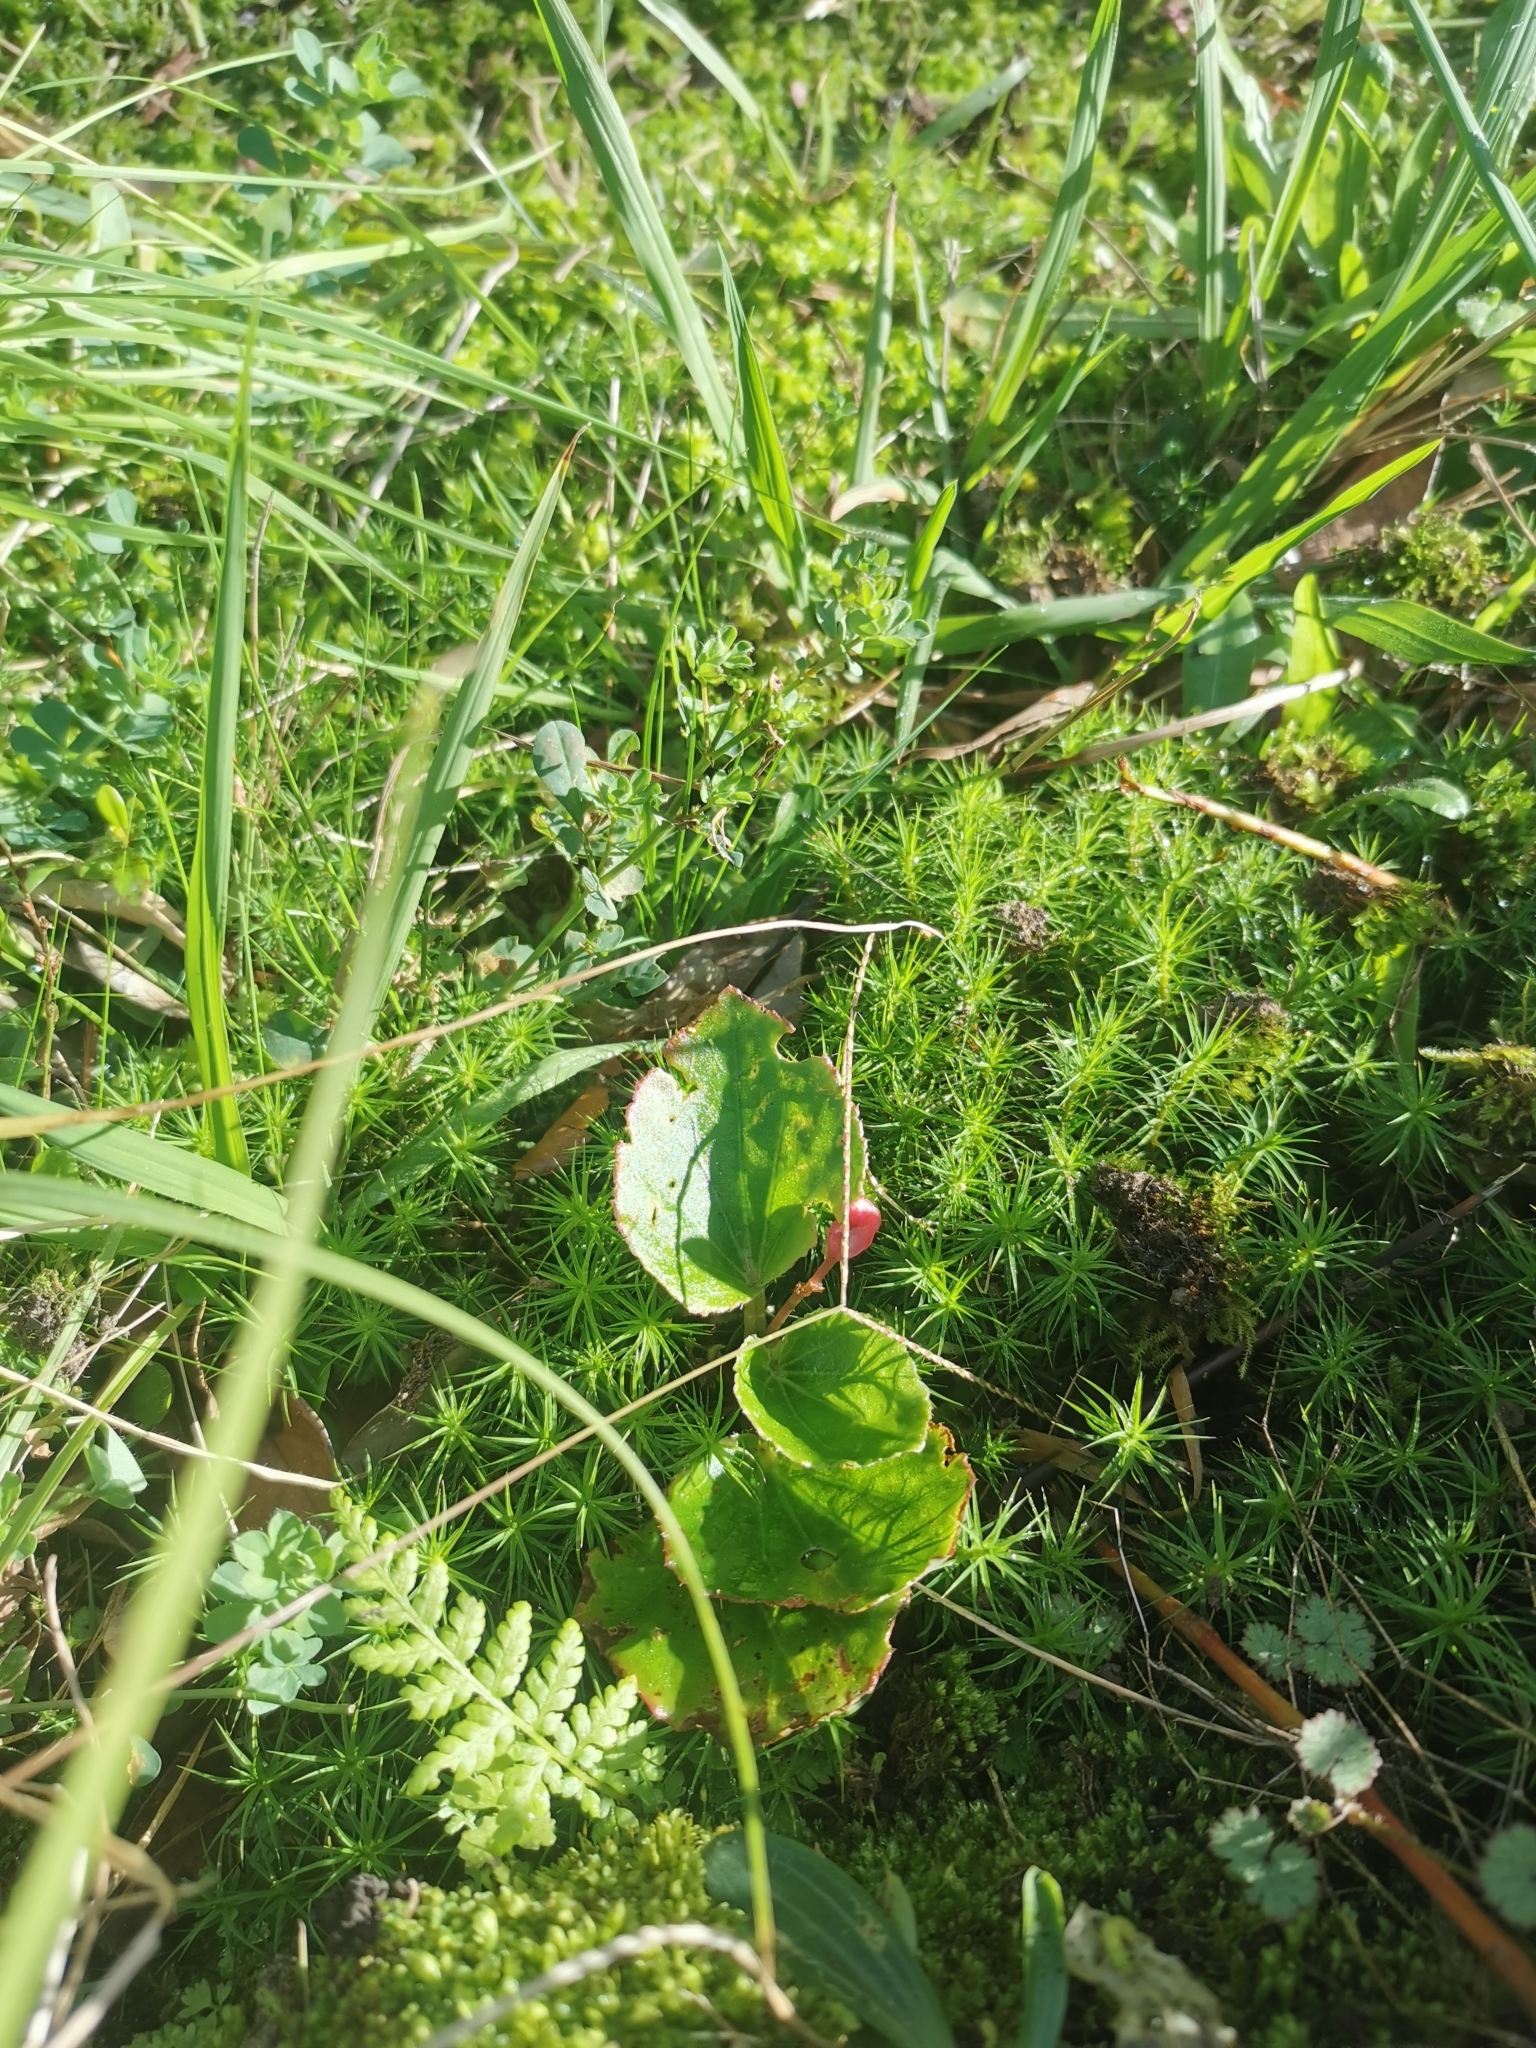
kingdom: Plantae
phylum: Tracheophyta
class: Magnoliopsida
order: Cucurbitales
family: Begoniaceae
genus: Begonia
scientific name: Begonia semperflorens-cultorum
